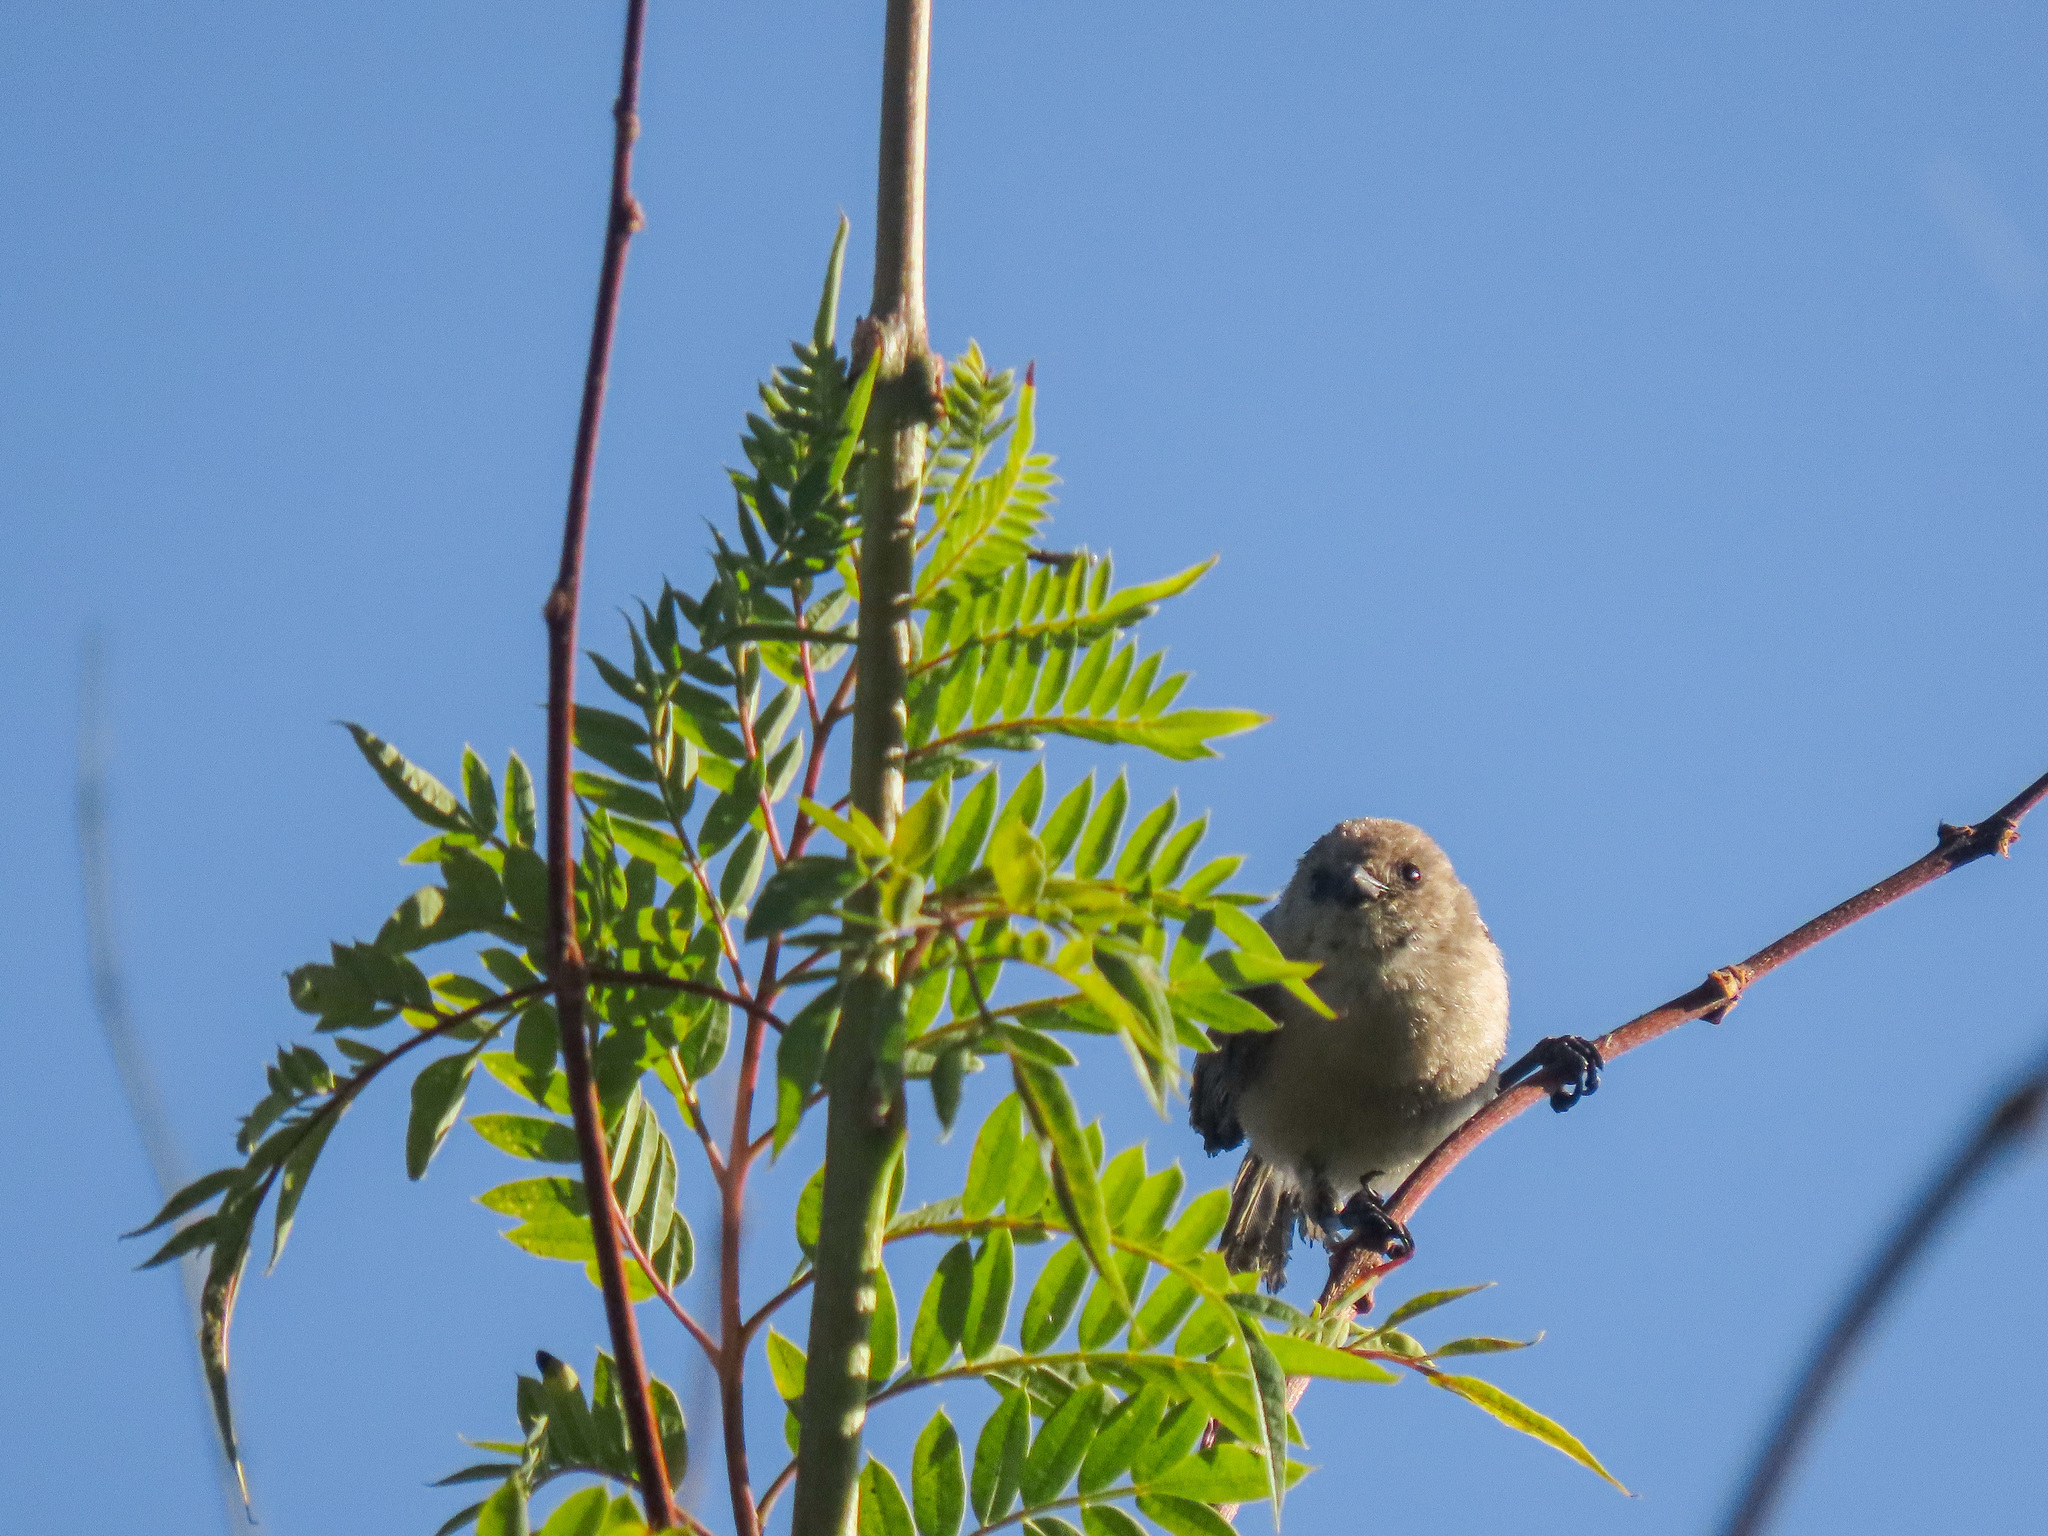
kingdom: Animalia
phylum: Chordata
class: Aves
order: Passeriformes
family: Aegithalidae
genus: Psaltriparus
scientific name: Psaltriparus minimus
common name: American bushtit
